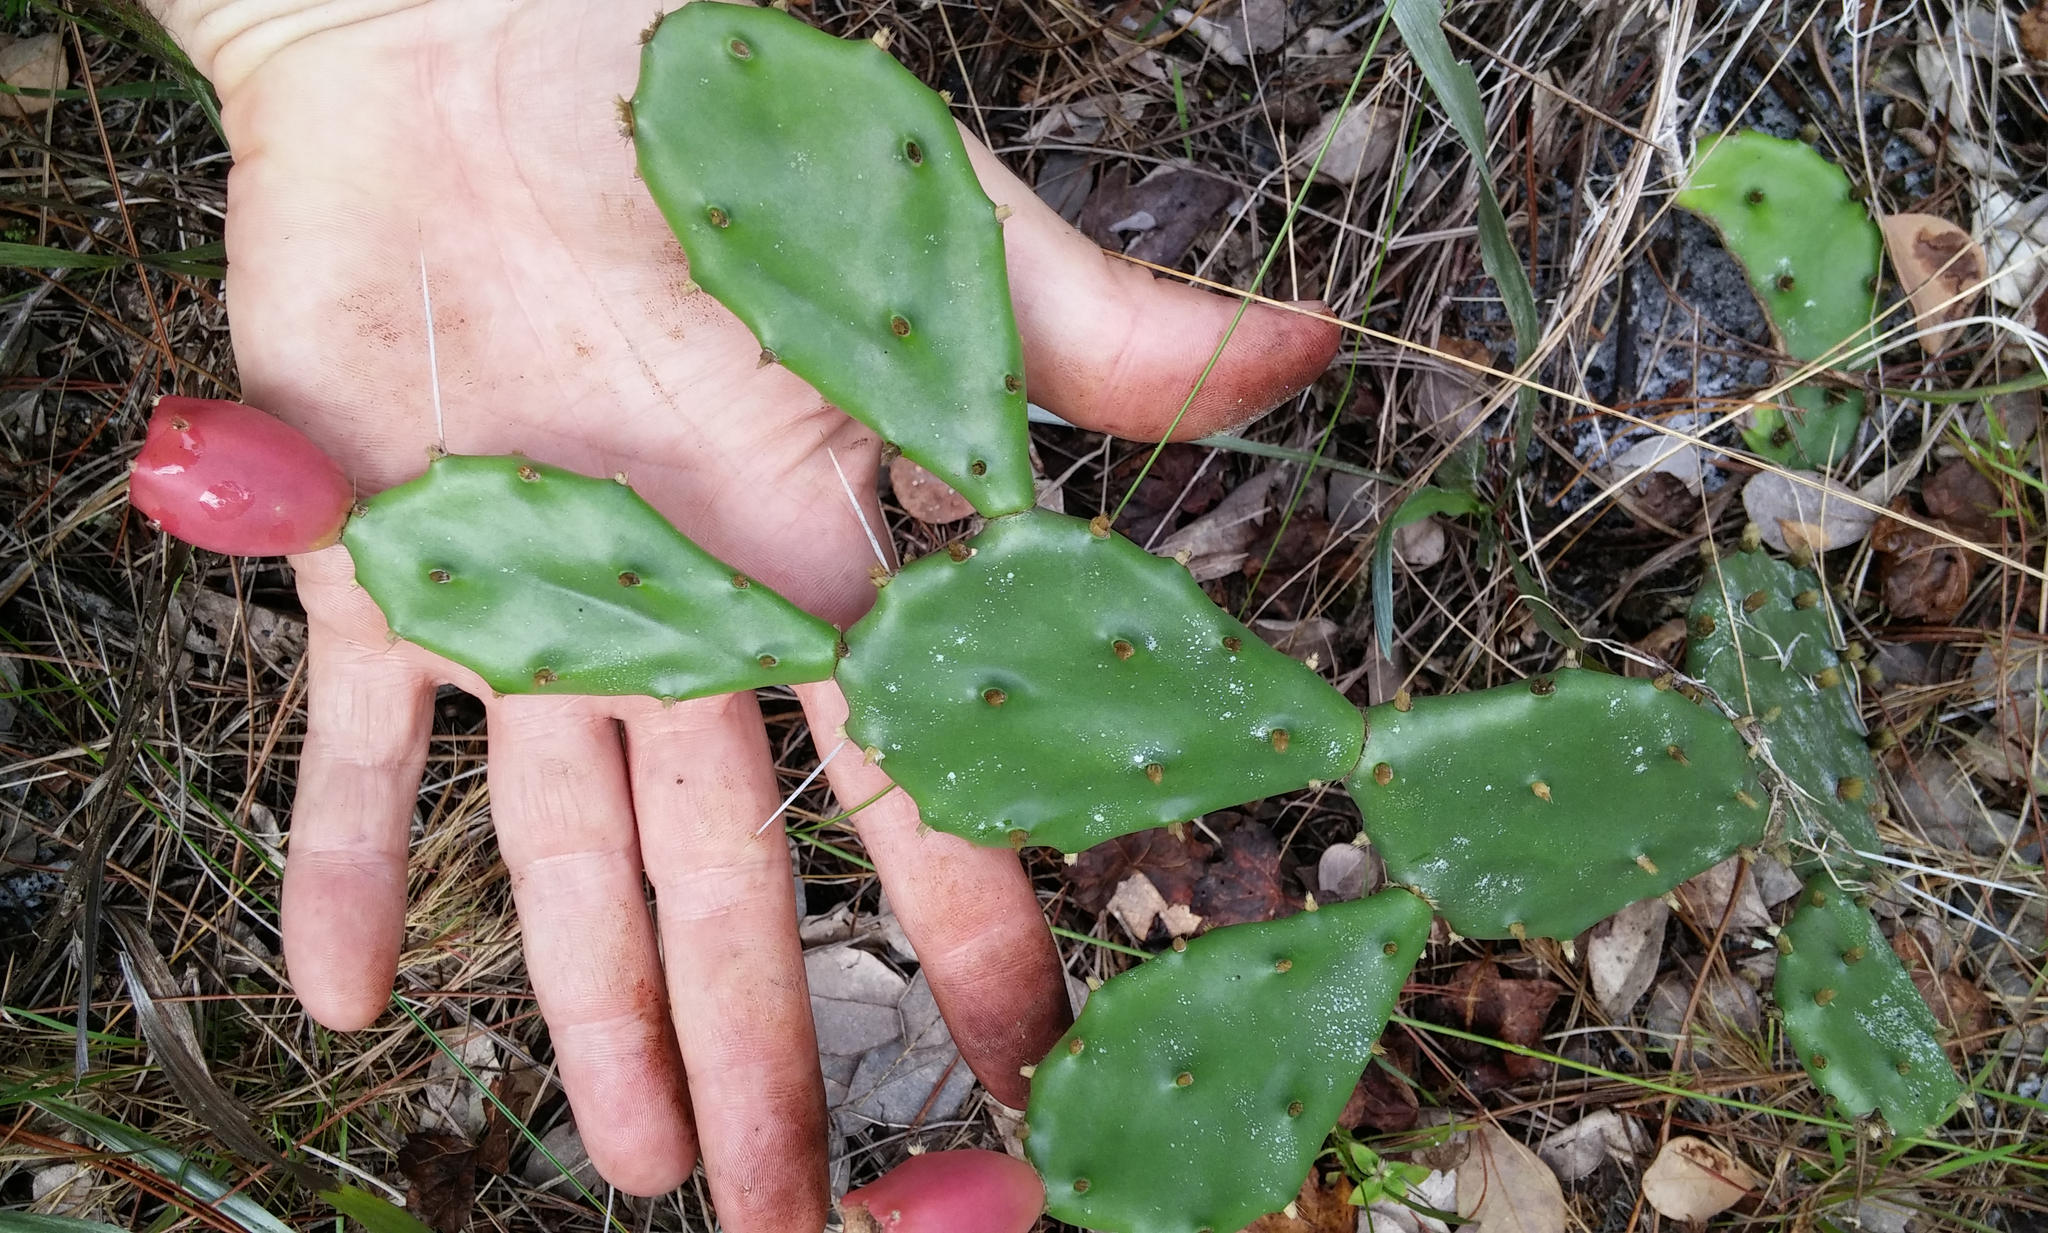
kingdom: Plantae
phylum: Tracheophyta
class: Magnoliopsida
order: Caryophyllales
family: Cactaceae
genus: Opuntia
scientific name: Opuntia mesacantha
